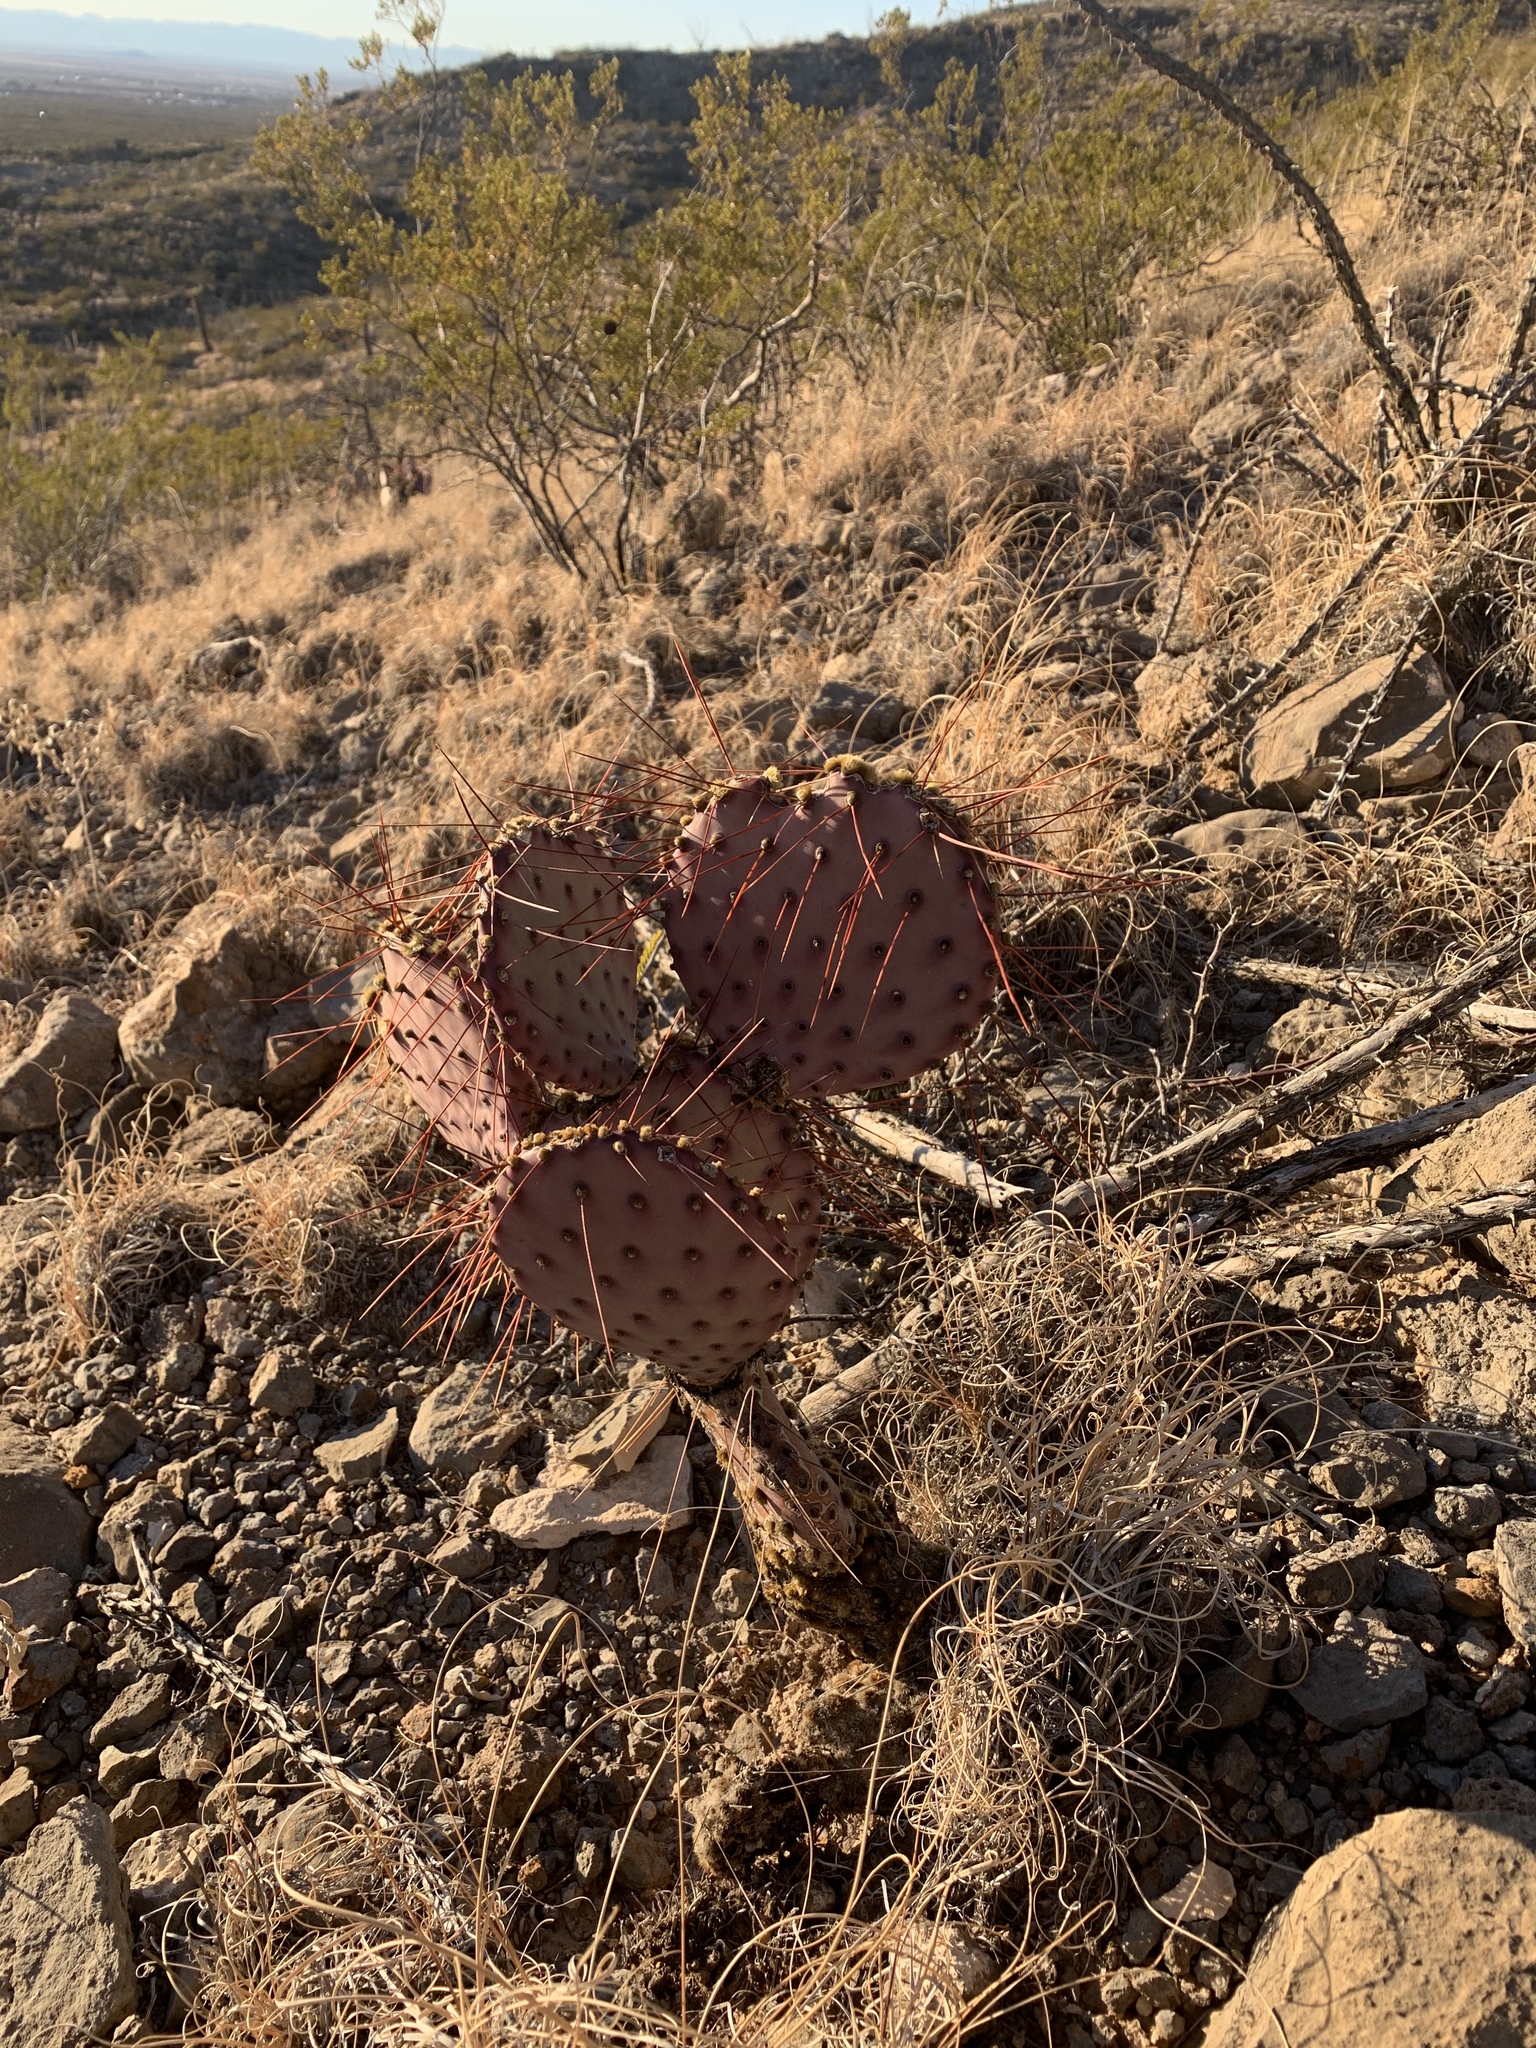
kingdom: Plantae
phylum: Tracheophyta
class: Magnoliopsida
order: Caryophyllales
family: Cactaceae
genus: Opuntia
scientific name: Opuntia macrocentra
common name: Purple prickly-pear
